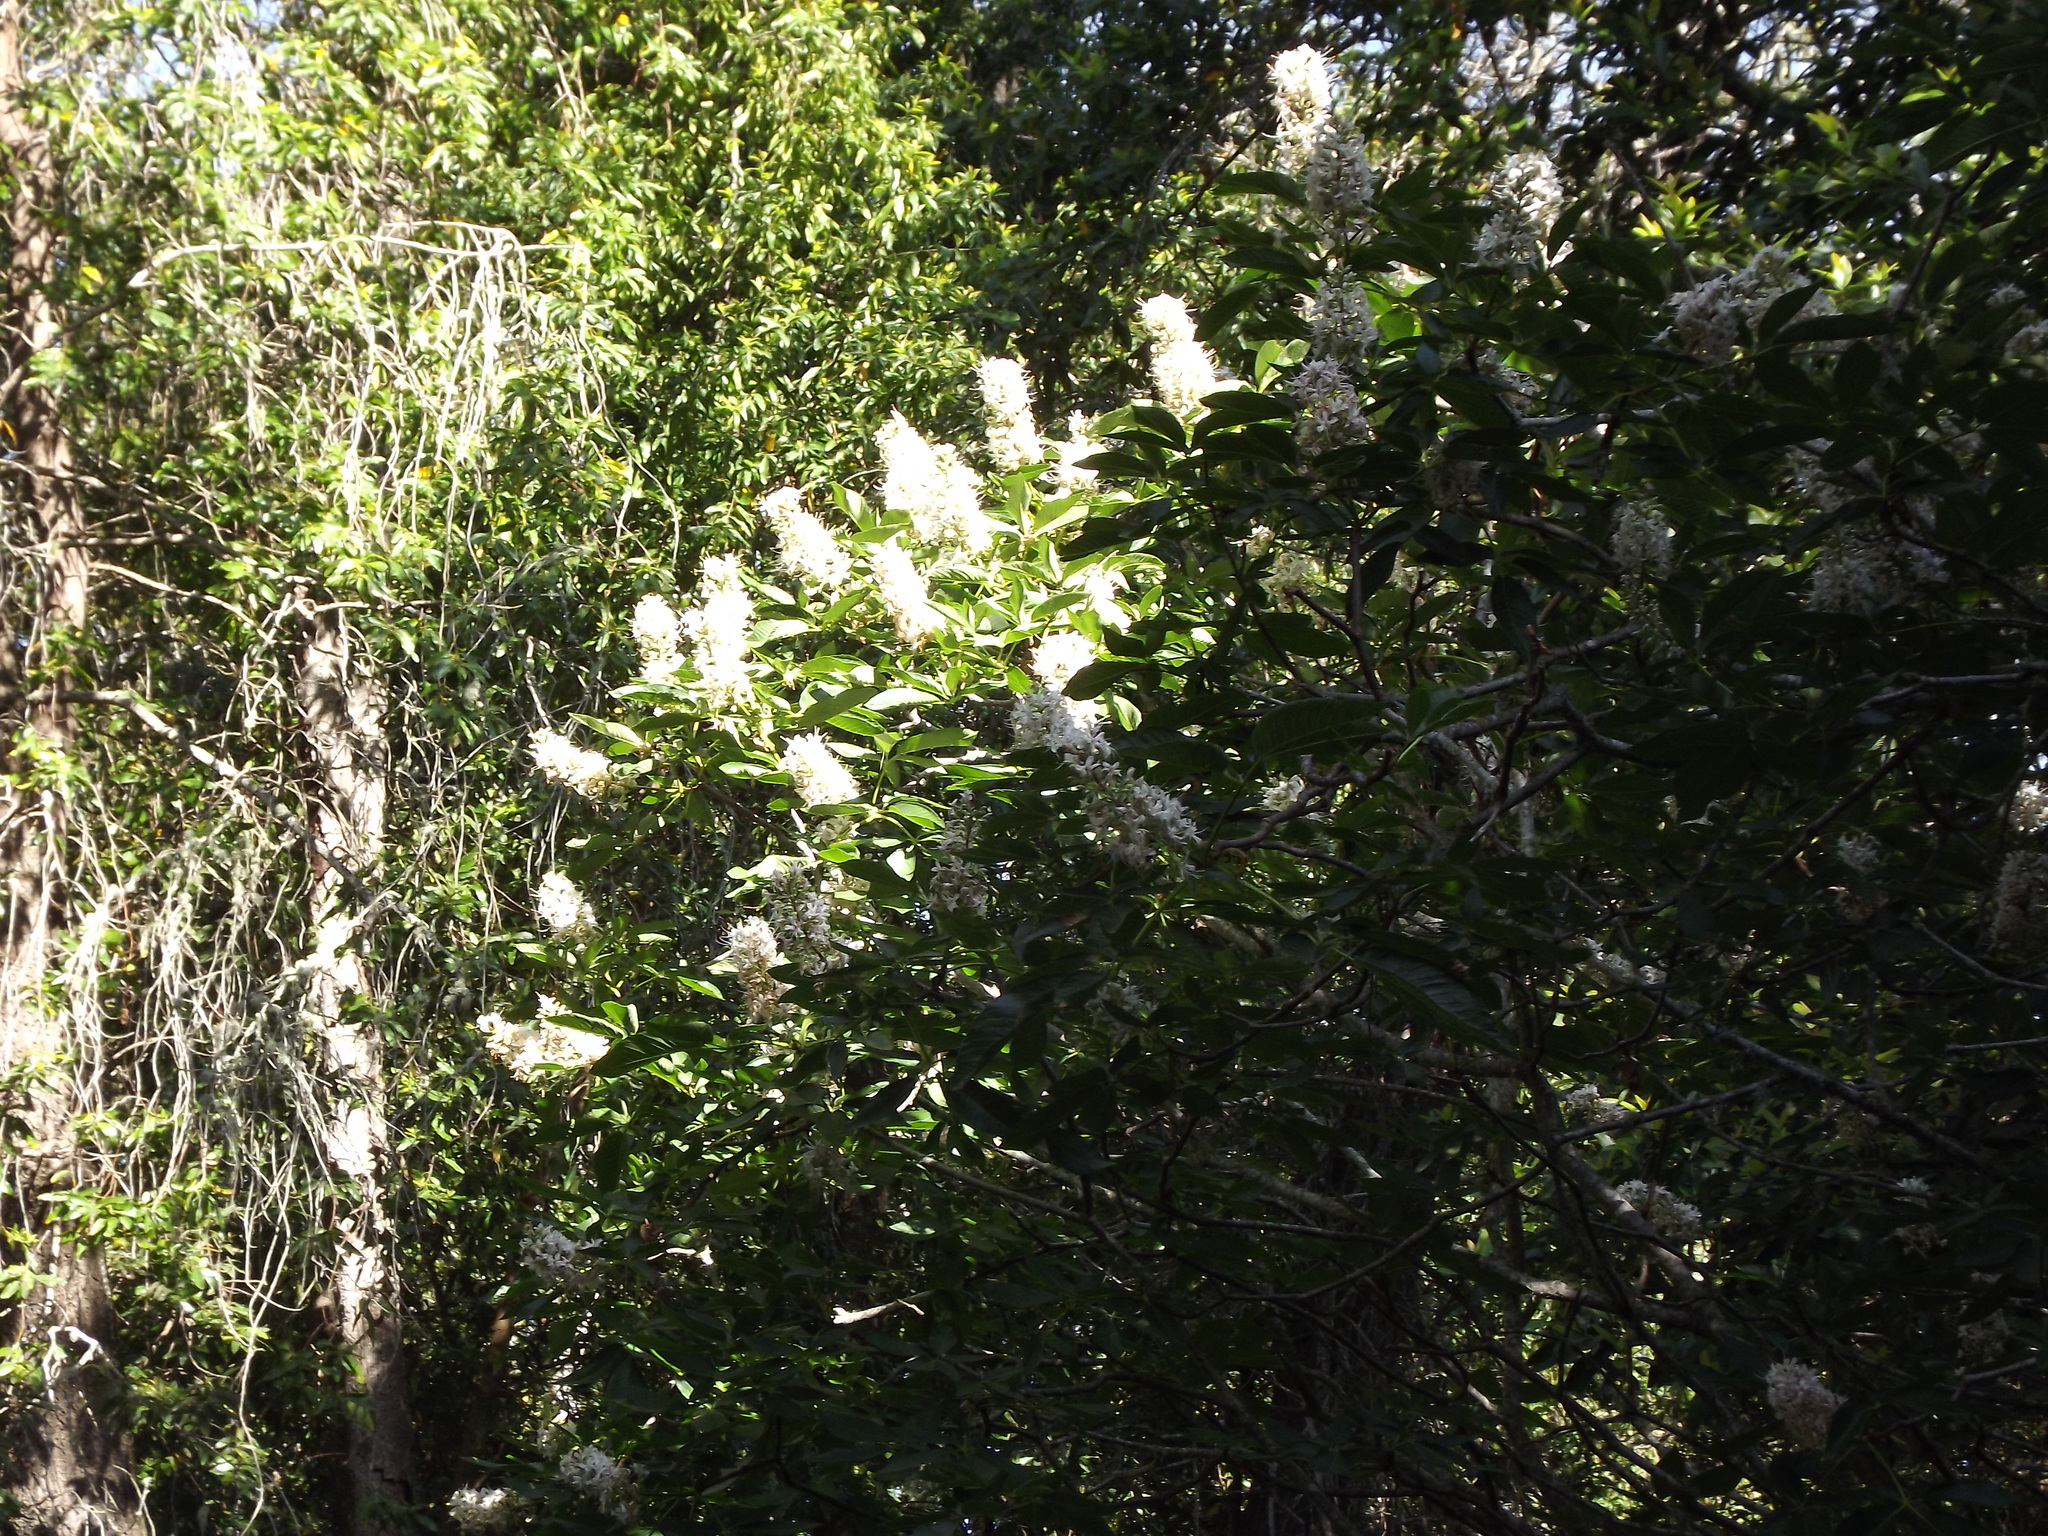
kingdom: Plantae
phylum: Tracheophyta
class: Magnoliopsida
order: Sapindales
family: Sapindaceae
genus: Aesculus
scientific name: Aesculus californica
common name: California buckeye
